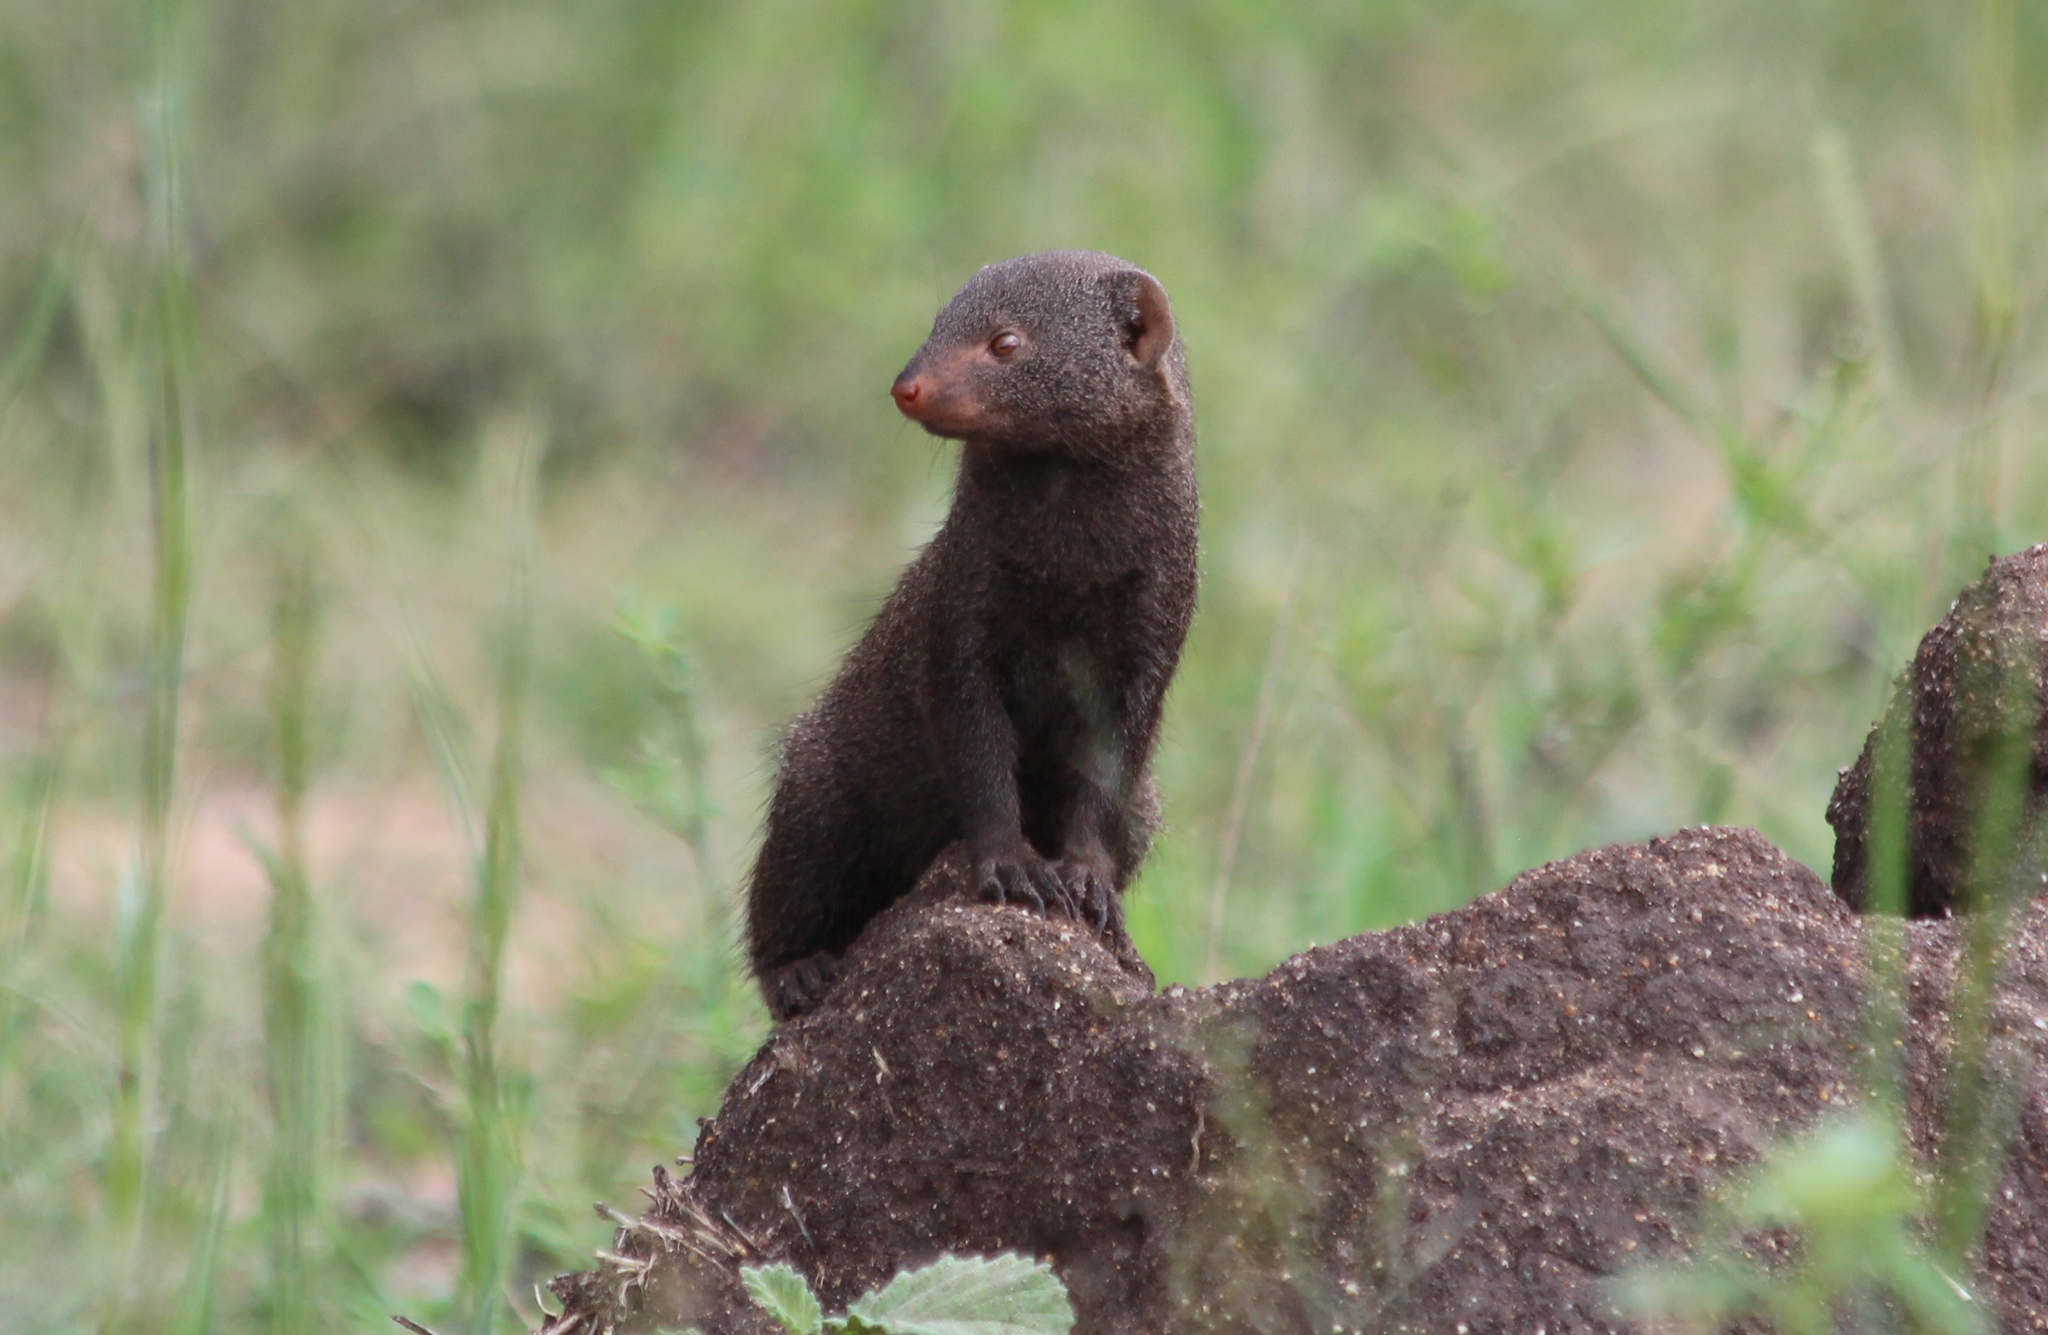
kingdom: Animalia
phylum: Chordata
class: Mammalia
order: Carnivora
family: Herpestidae
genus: Helogale
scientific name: Helogale parvula
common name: Common dwarf mongoose
